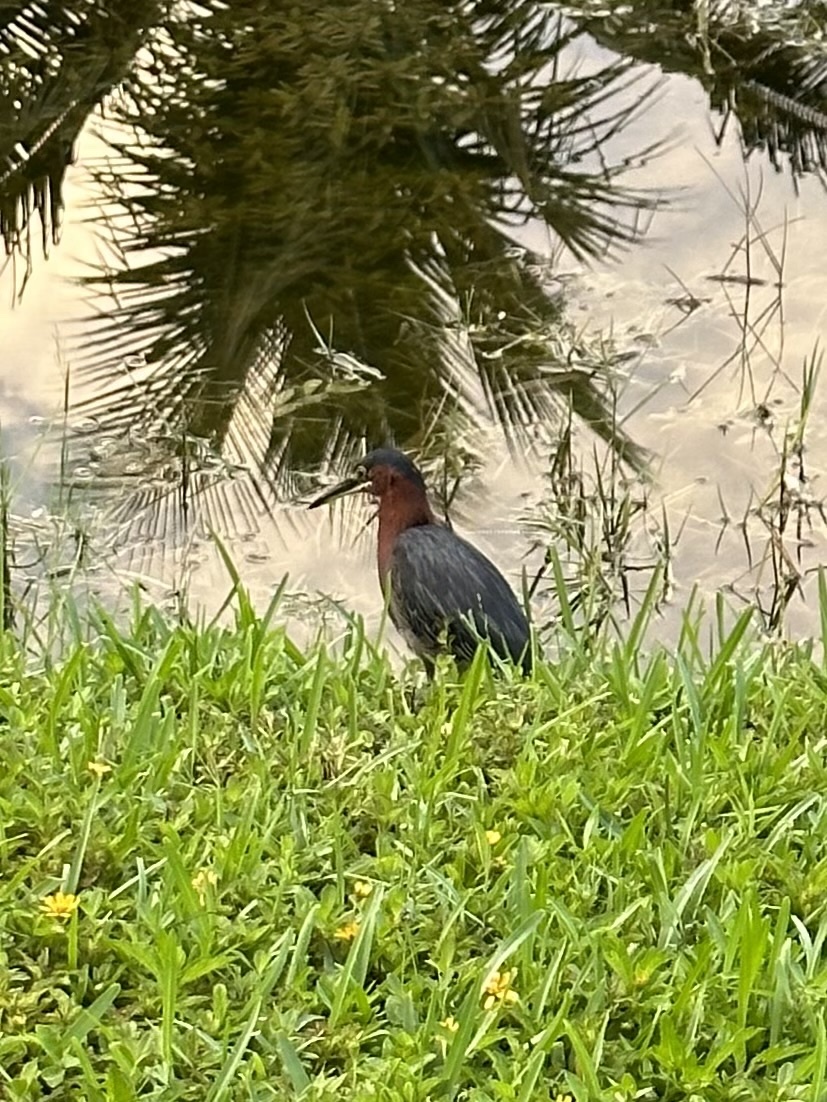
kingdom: Animalia
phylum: Chordata
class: Aves
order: Pelecaniformes
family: Ardeidae
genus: Butorides
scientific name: Butorides virescens
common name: Green heron
